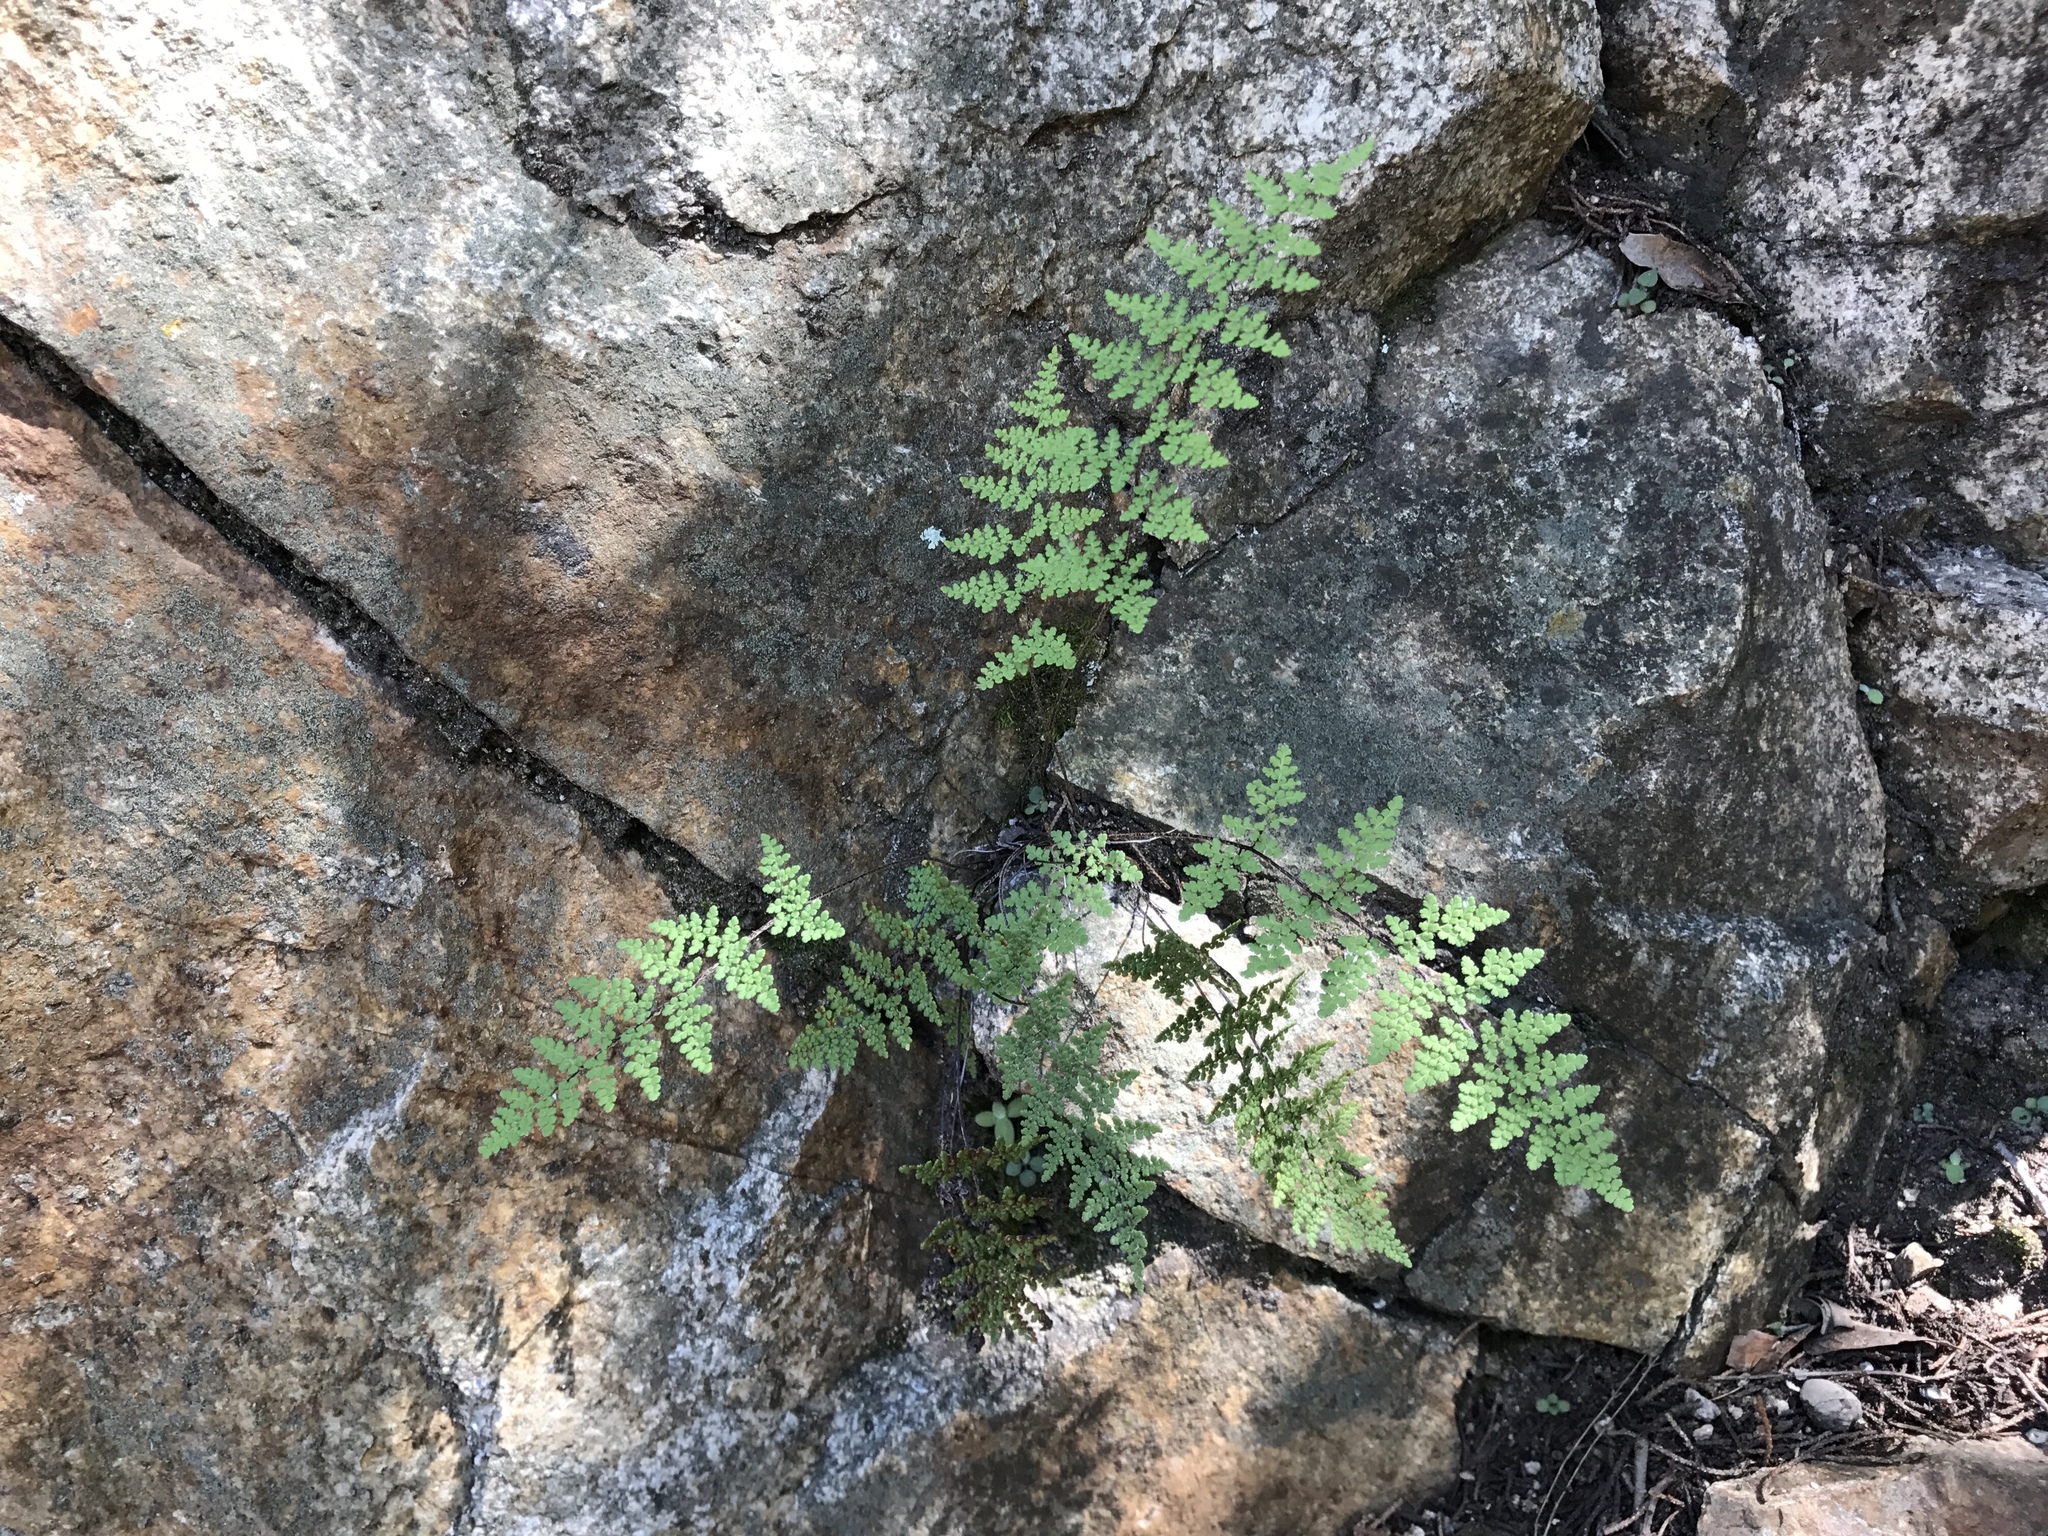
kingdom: Plantae
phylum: Tracheophyta
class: Polypodiopsida
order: Polypodiales
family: Pteridaceae
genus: Myriopteris
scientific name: Myriopteris fendleri
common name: Fendler's lip fern
